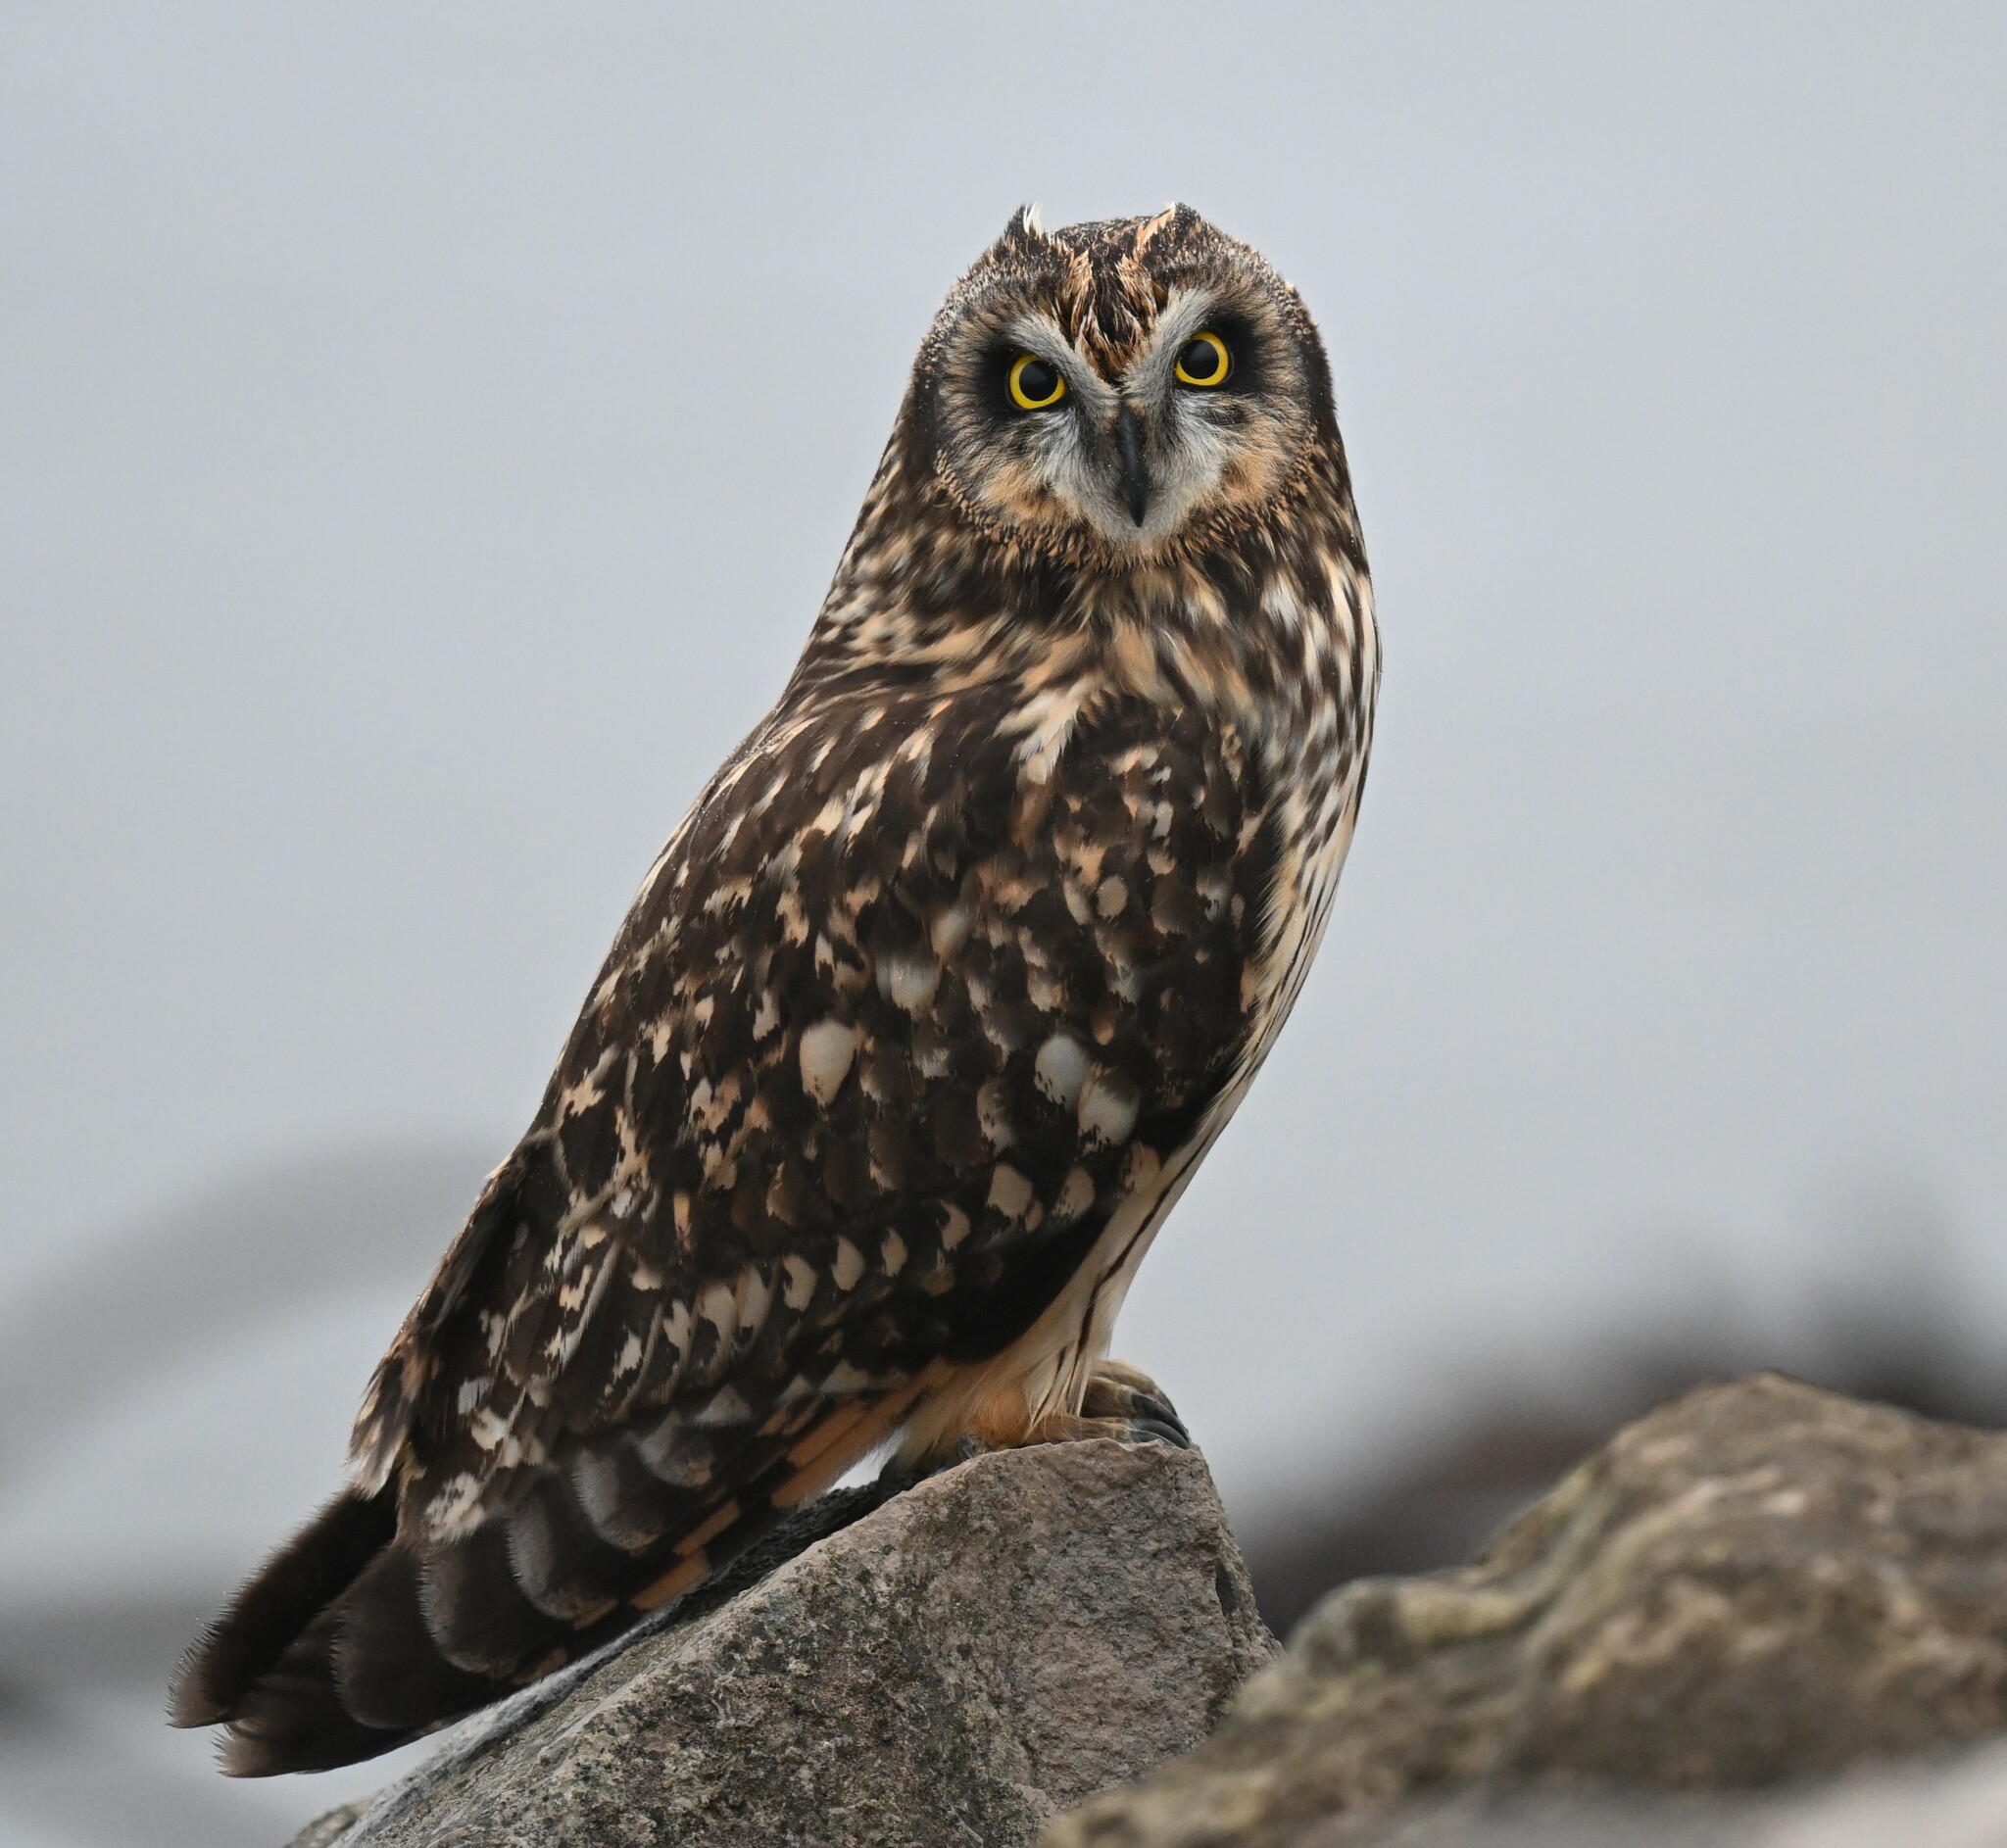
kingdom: Animalia
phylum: Chordata
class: Aves
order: Strigiformes
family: Strigidae
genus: Asio
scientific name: Asio flammeus
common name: Short-eared owl
